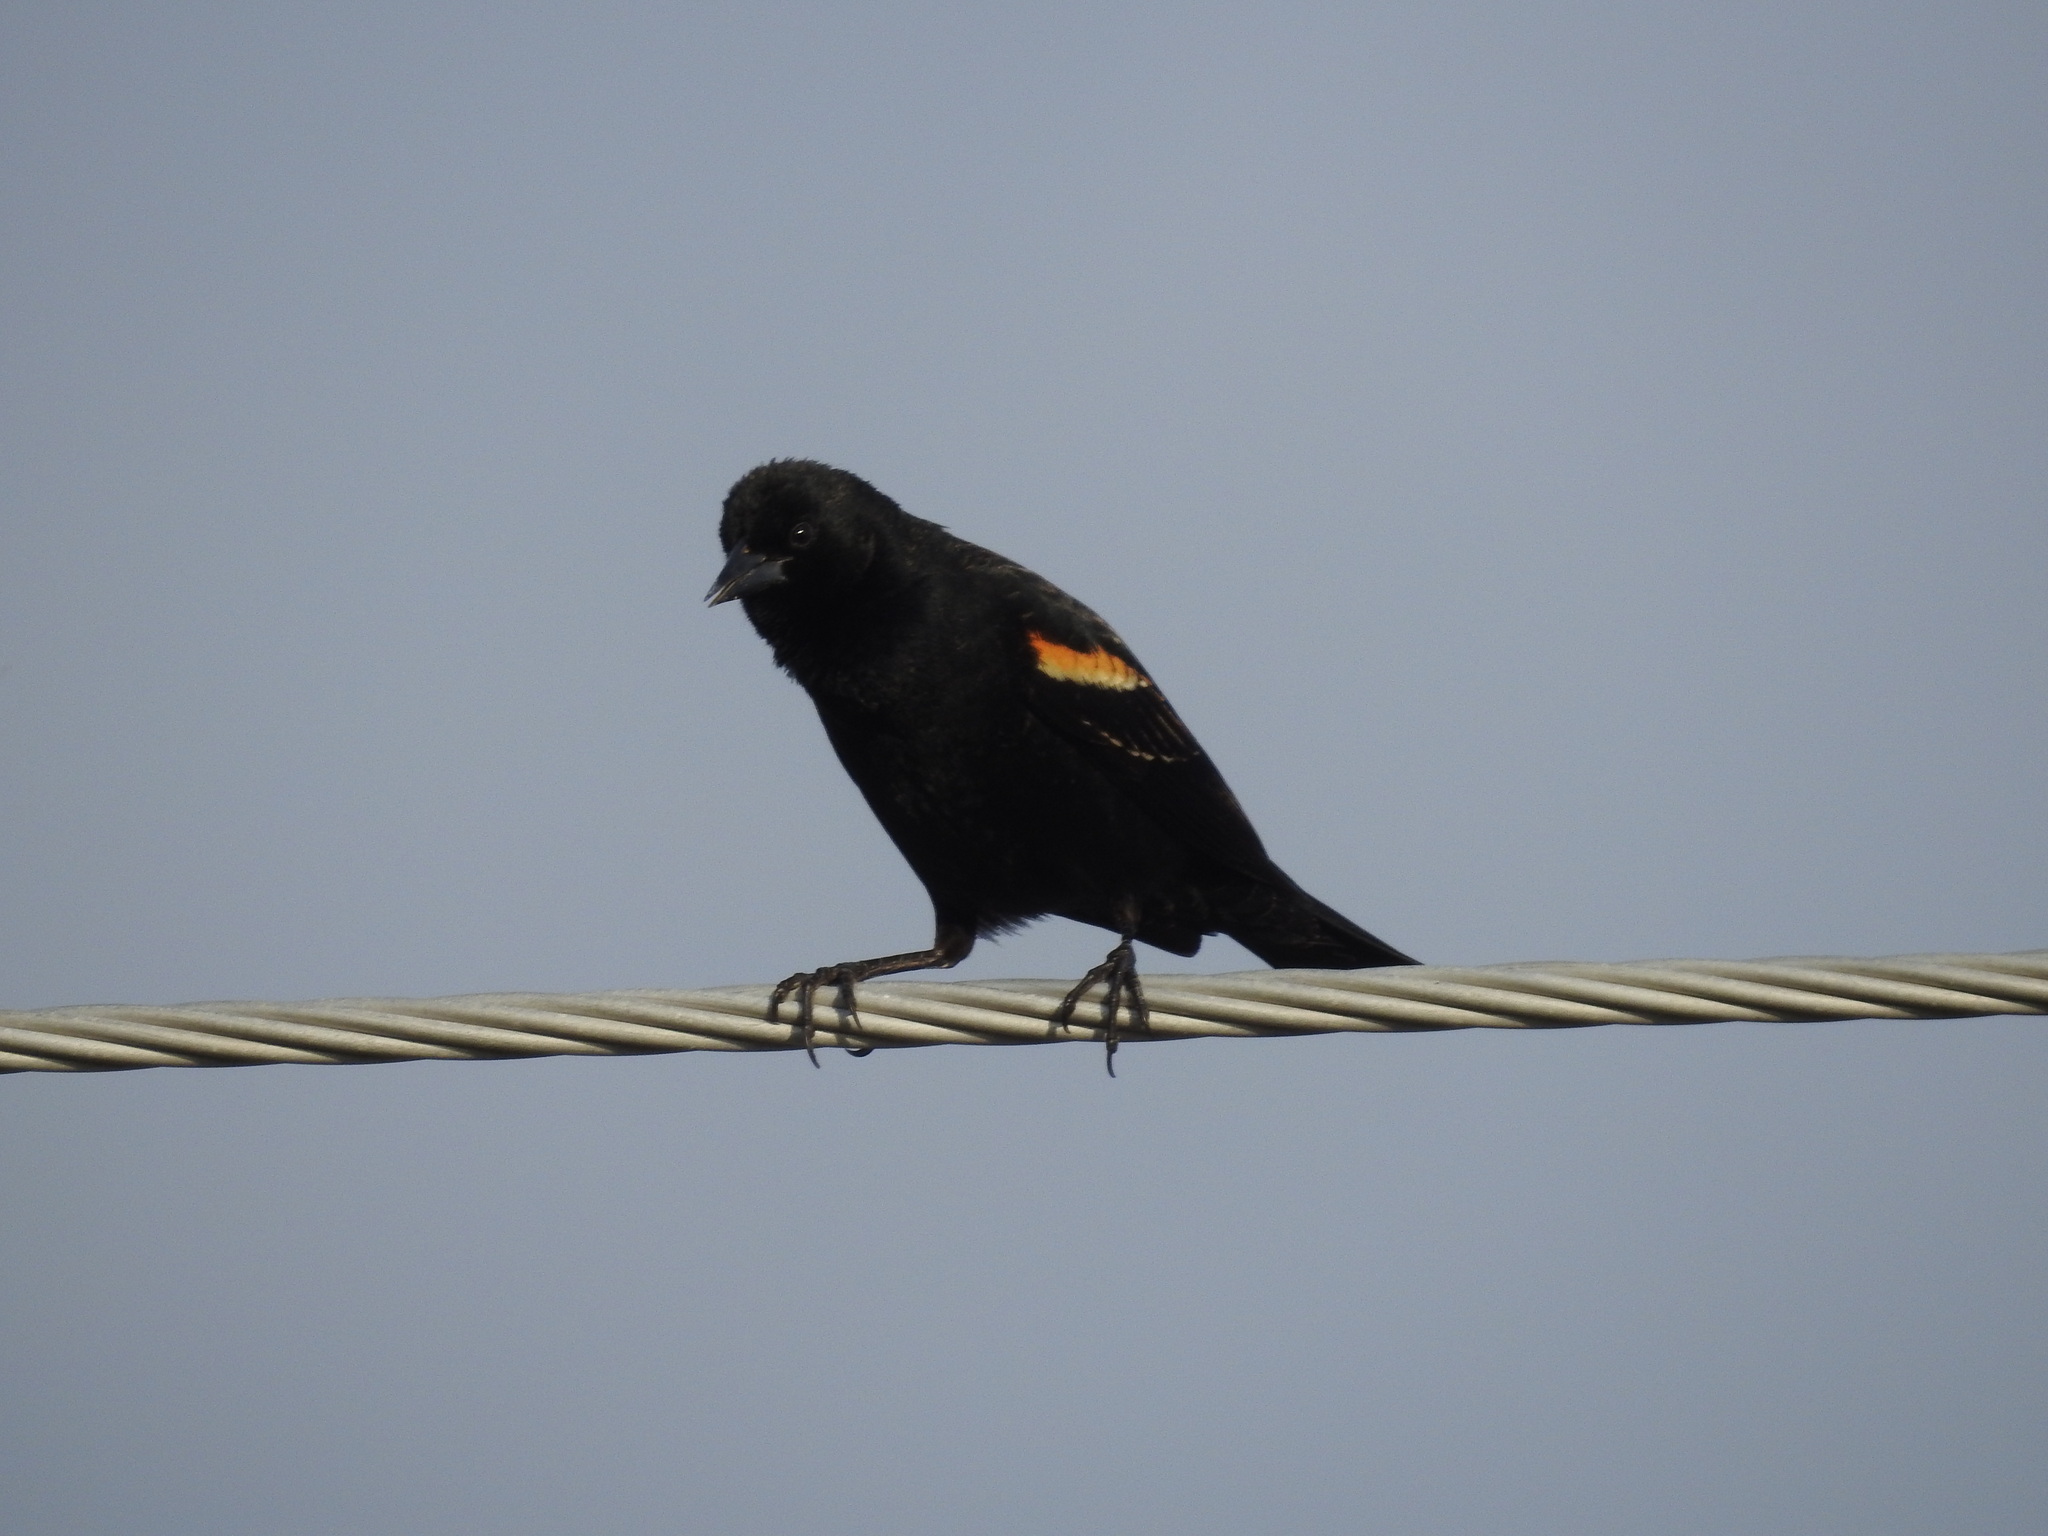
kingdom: Animalia
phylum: Chordata
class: Aves
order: Passeriformes
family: Icteridae
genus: Agelaius
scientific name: Agelaius phoeniceus
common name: Red-winged blackbird
